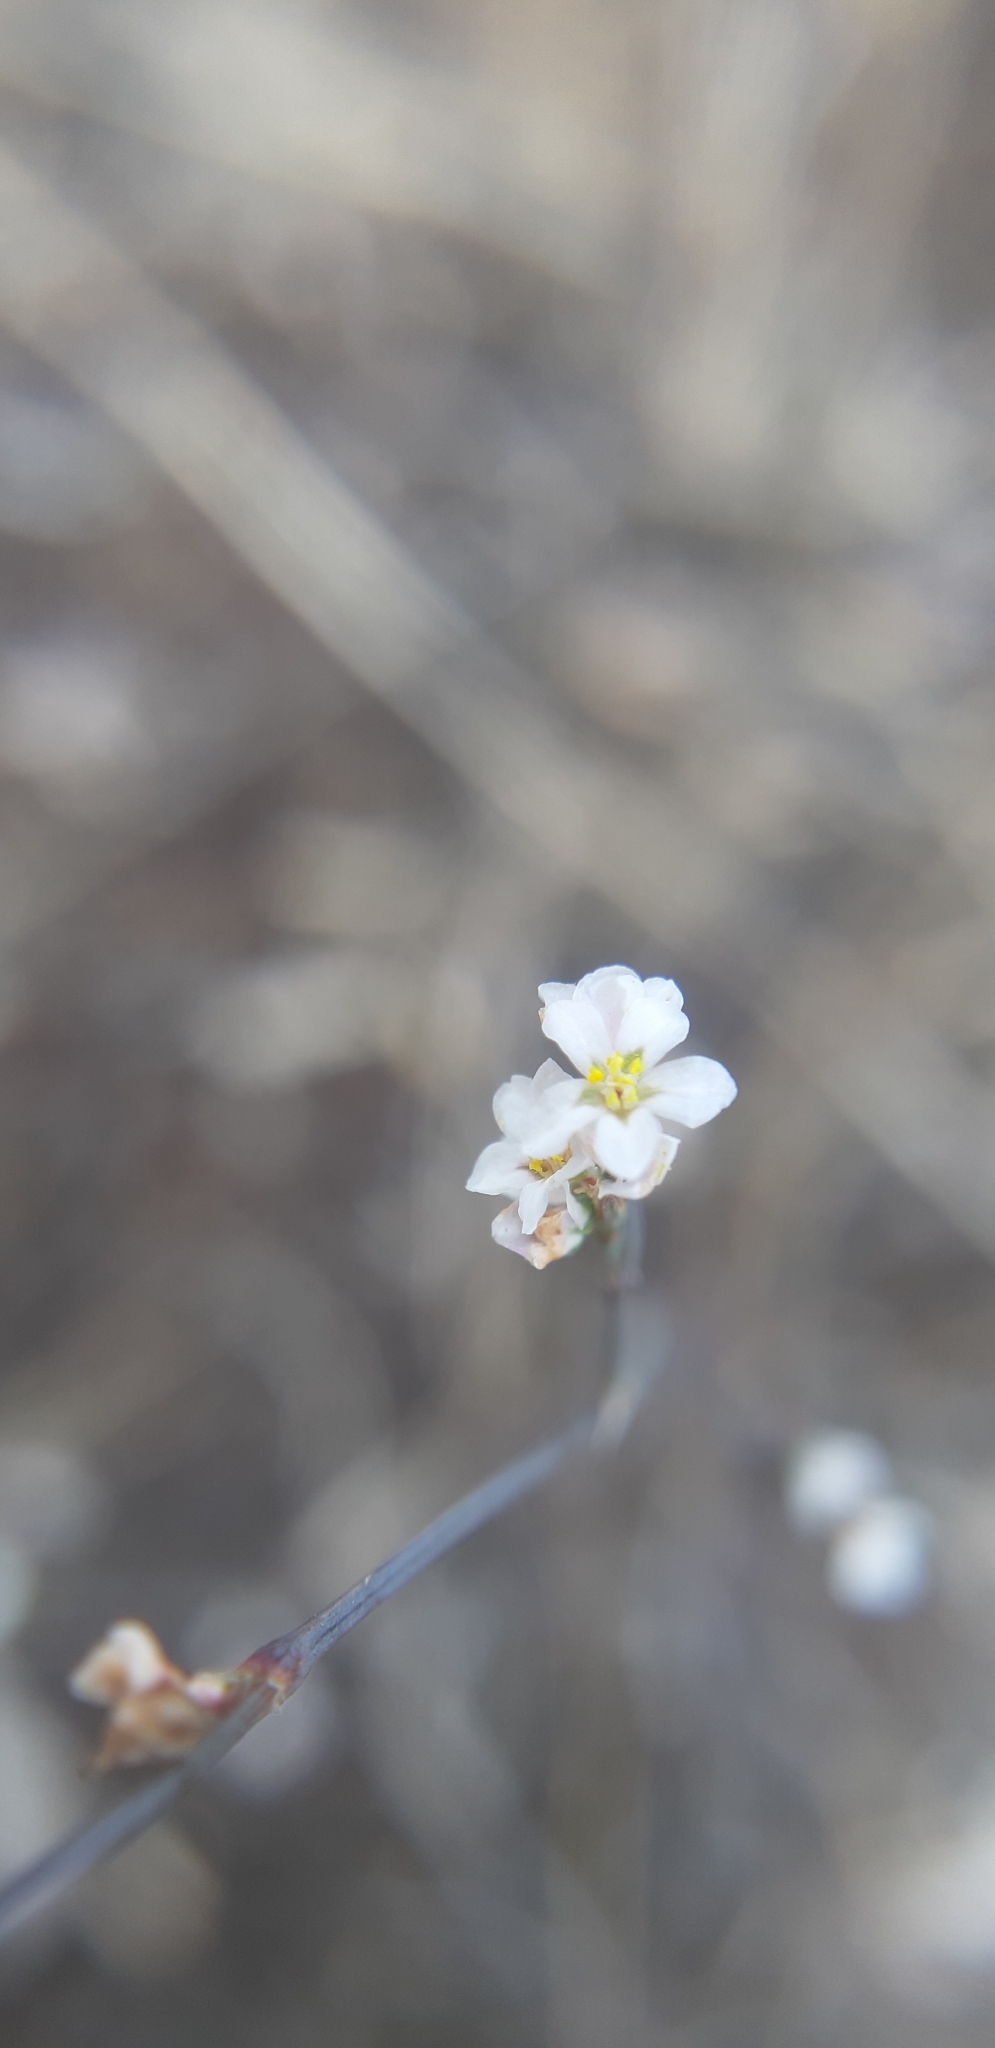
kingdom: Plantae
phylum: Tracheophyta
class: Magnoliopsida
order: Caryophyllales
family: Polygonaceae
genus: Polygonum
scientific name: Polygonum arenarium
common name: Lesser red-knotgrass
